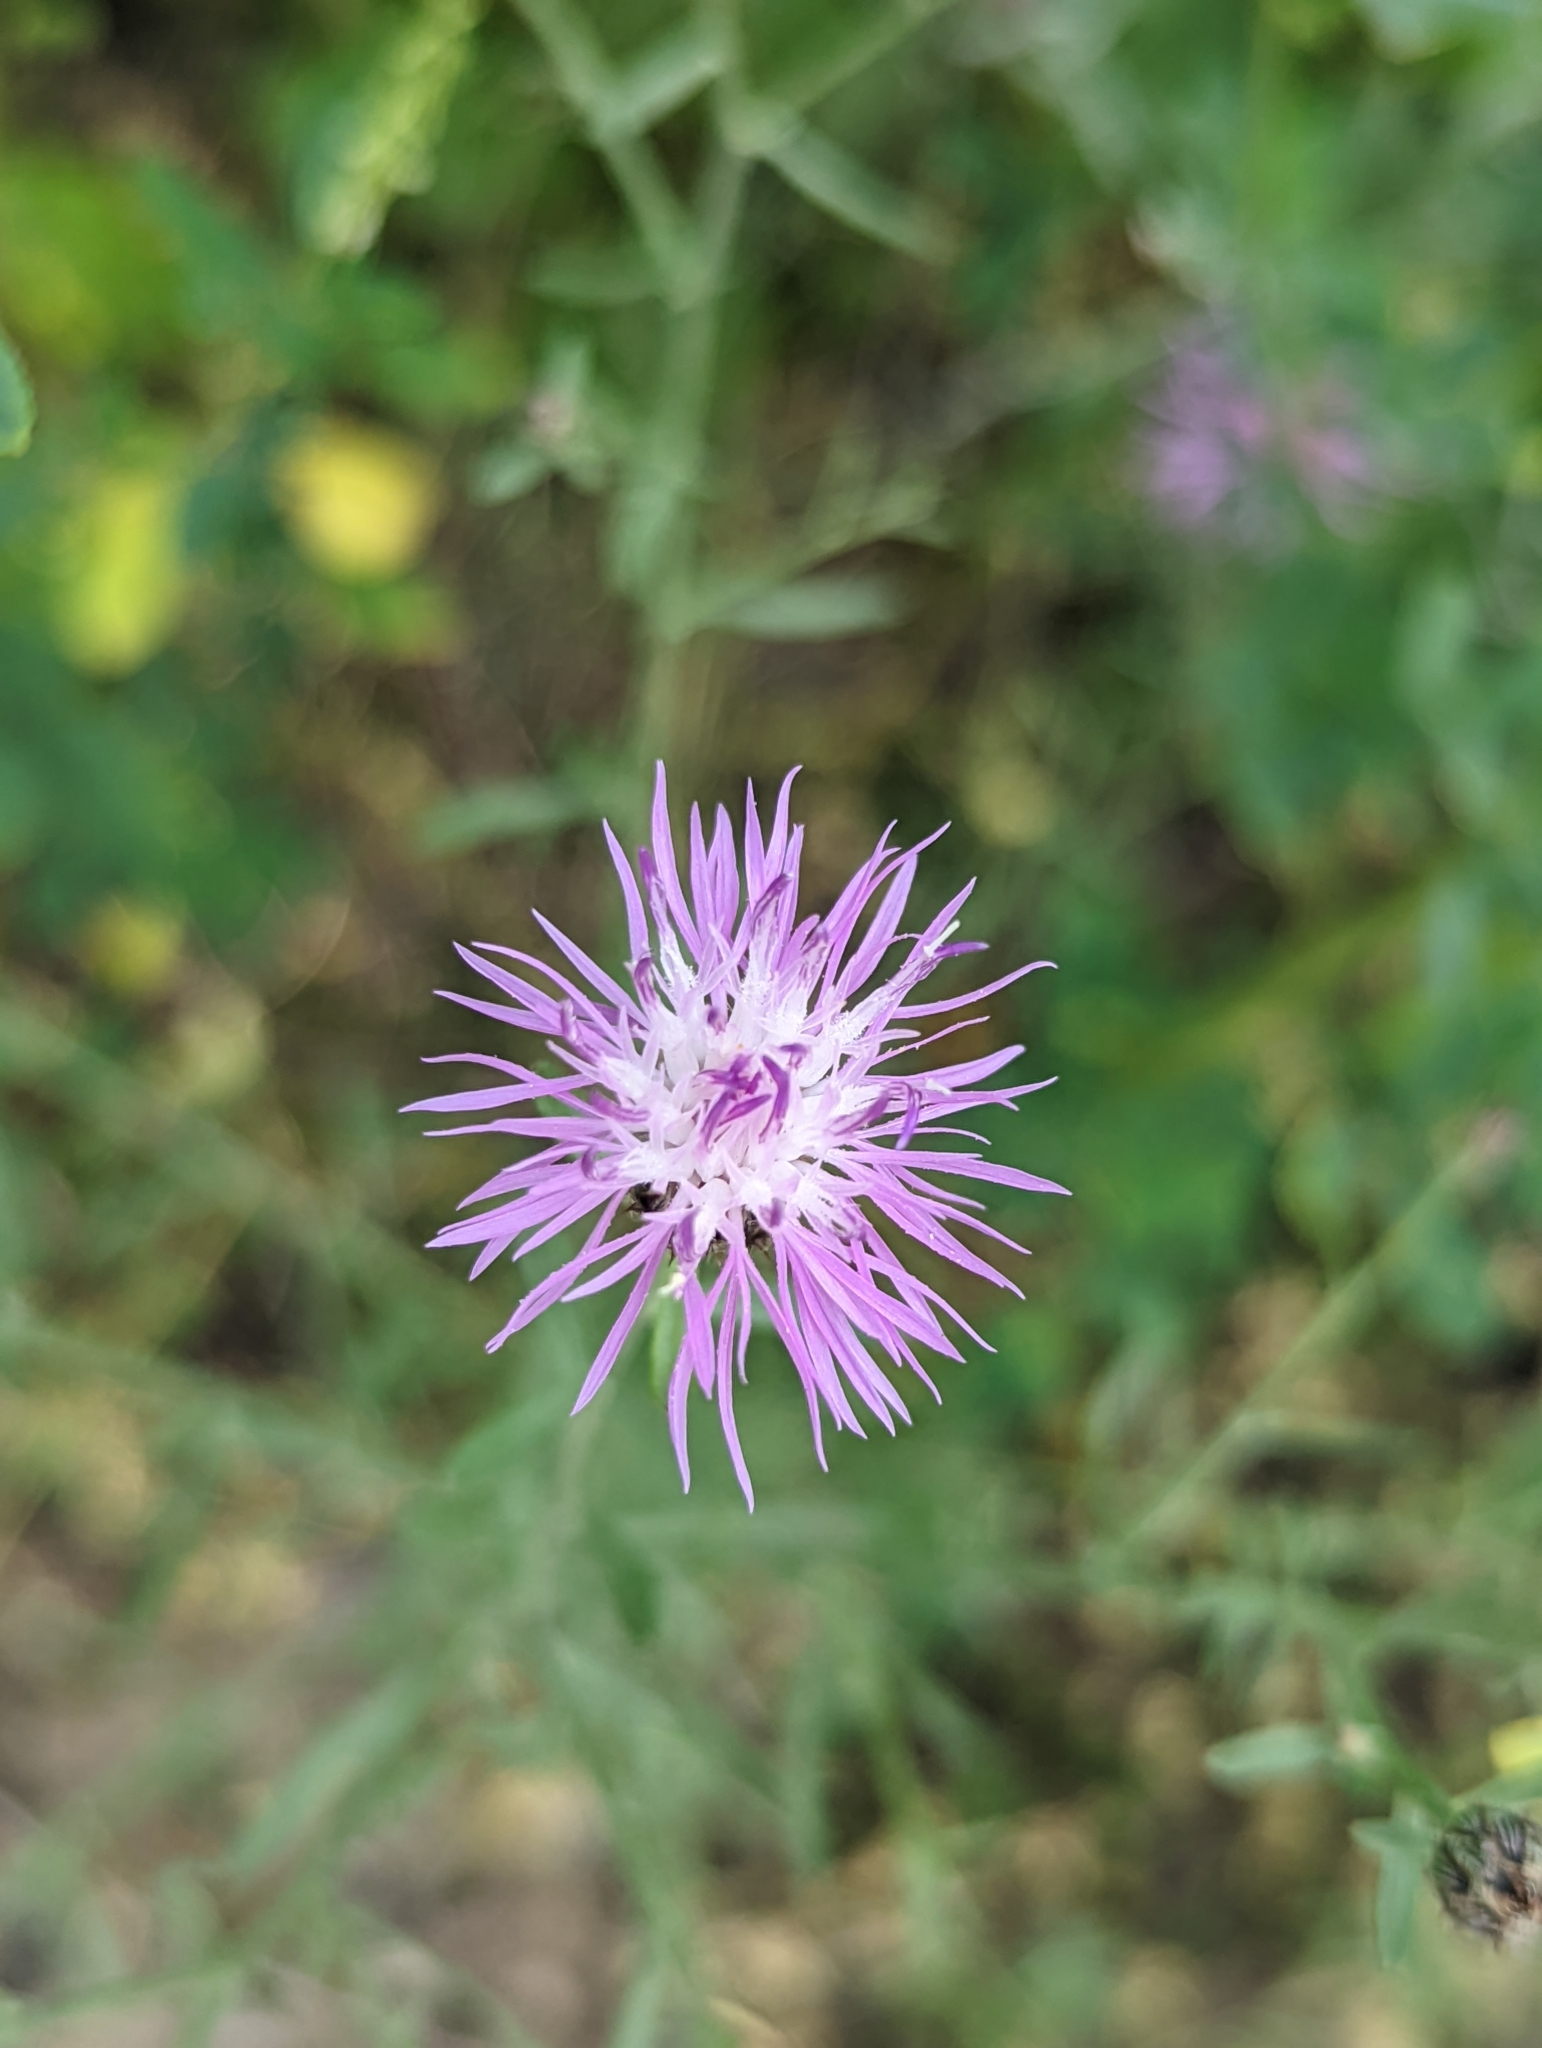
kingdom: Plantae
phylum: Tracheophyta
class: Magnoliopsida
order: Asterales
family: Asteraceae
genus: Centaurea
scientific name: Centaurea stoebe
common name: Spotted knapweed
